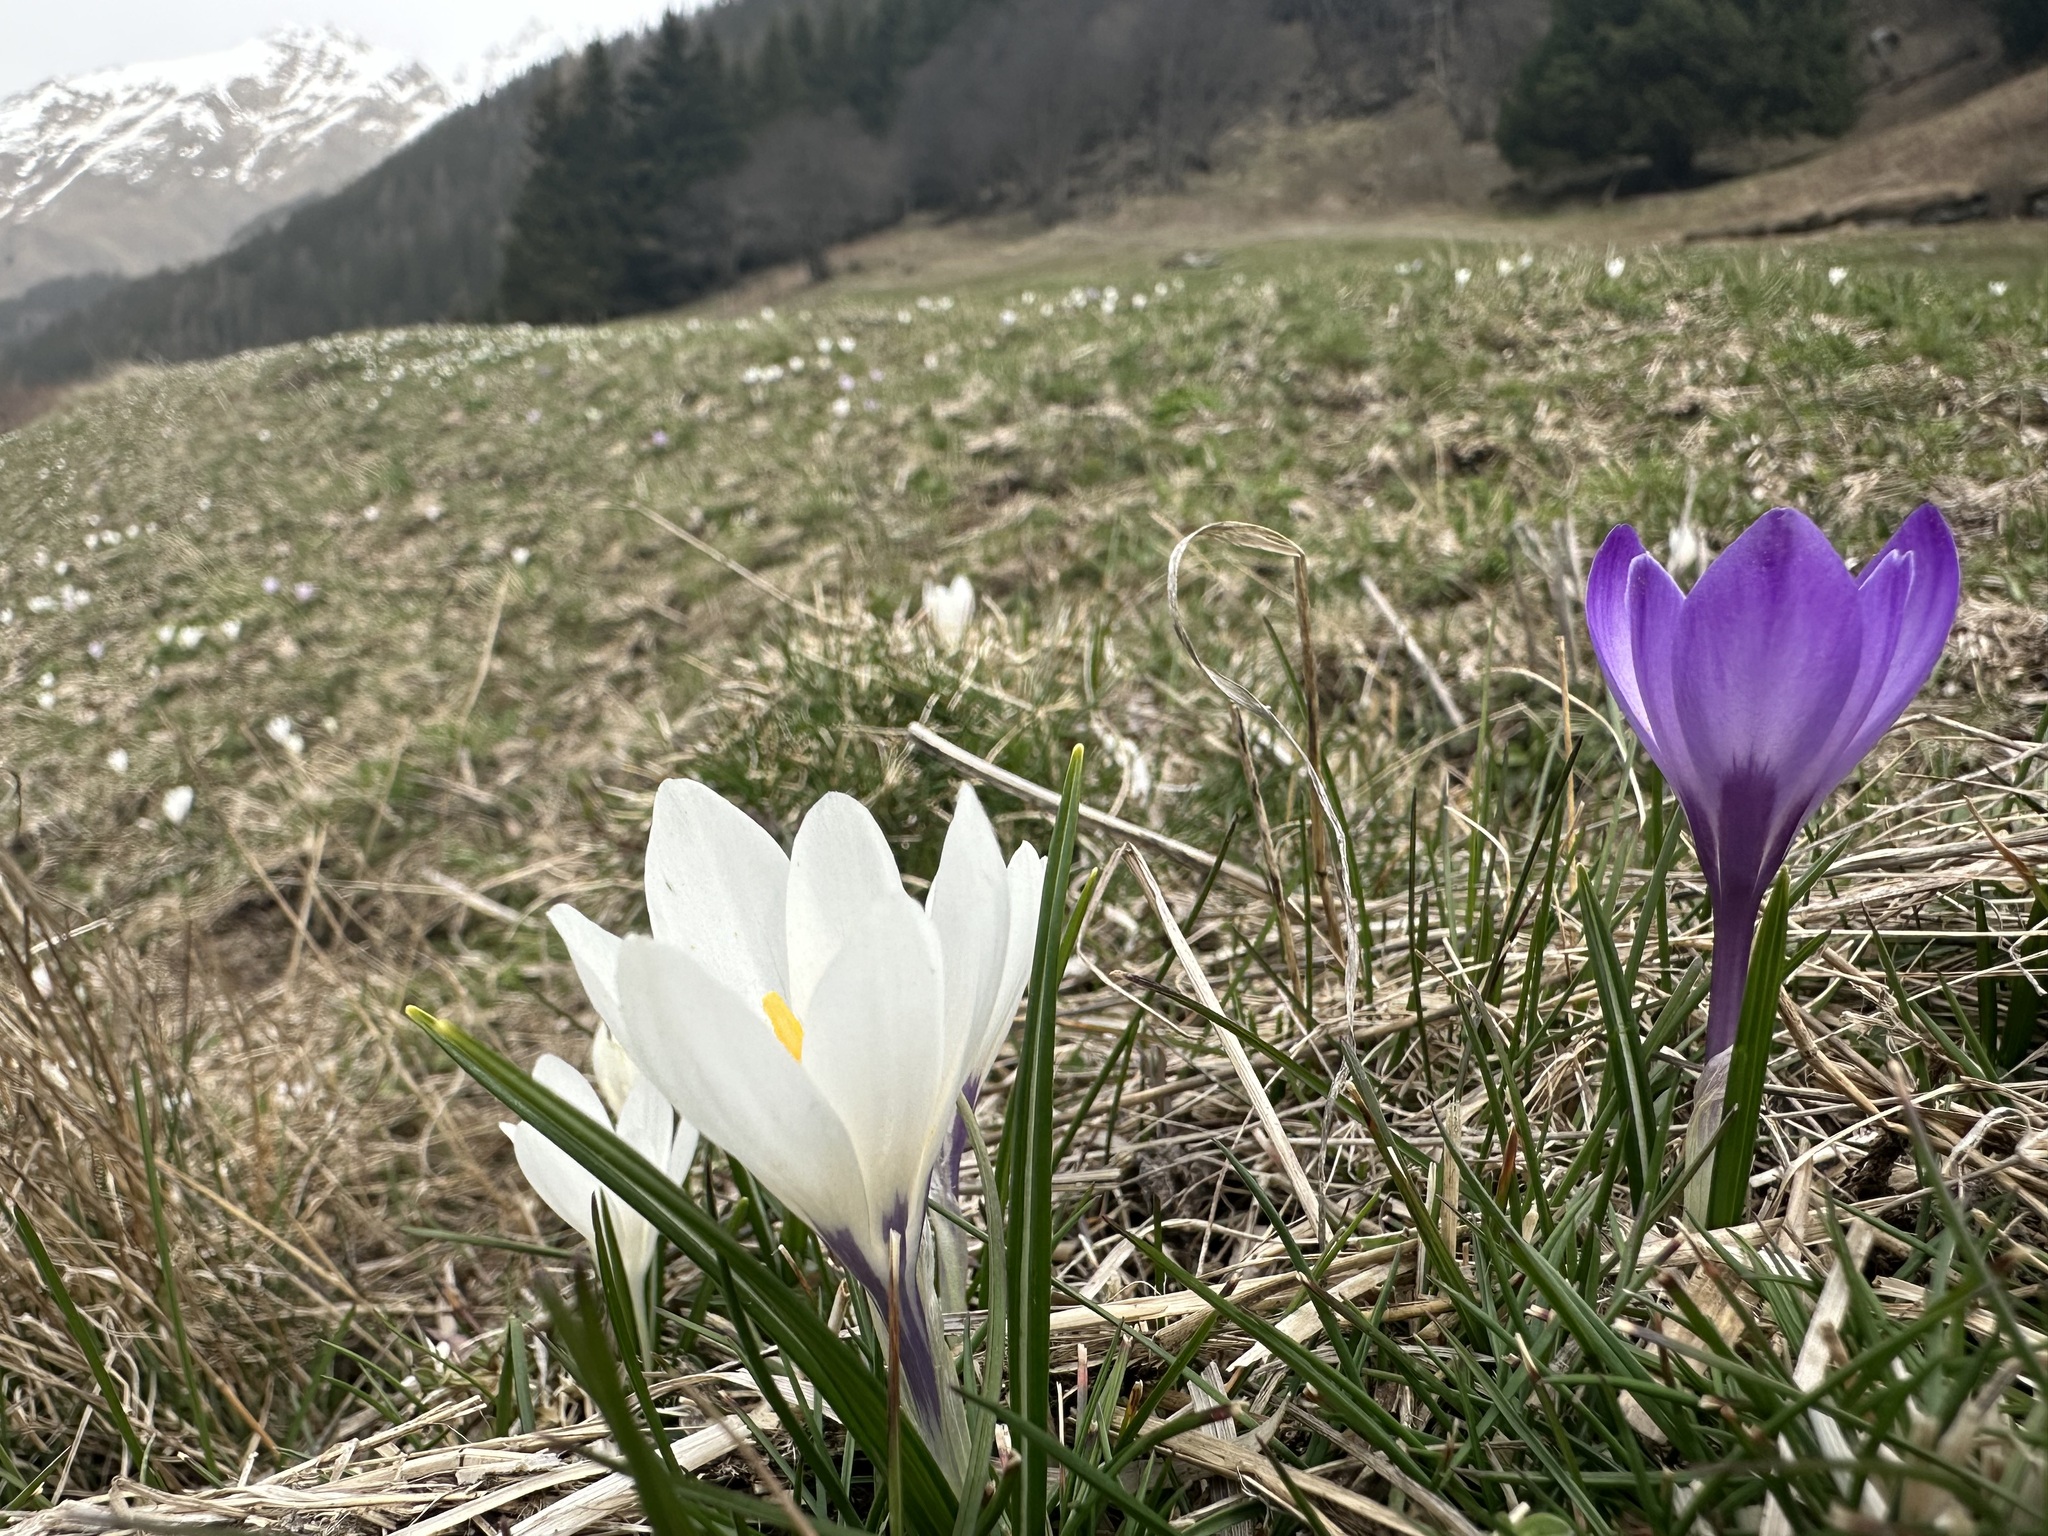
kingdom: Plantae
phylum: Tracheophyta
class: Liliopsida
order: Asparagales
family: Iridaceae
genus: Crocus
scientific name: Crocus vernus
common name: Spring crocus
